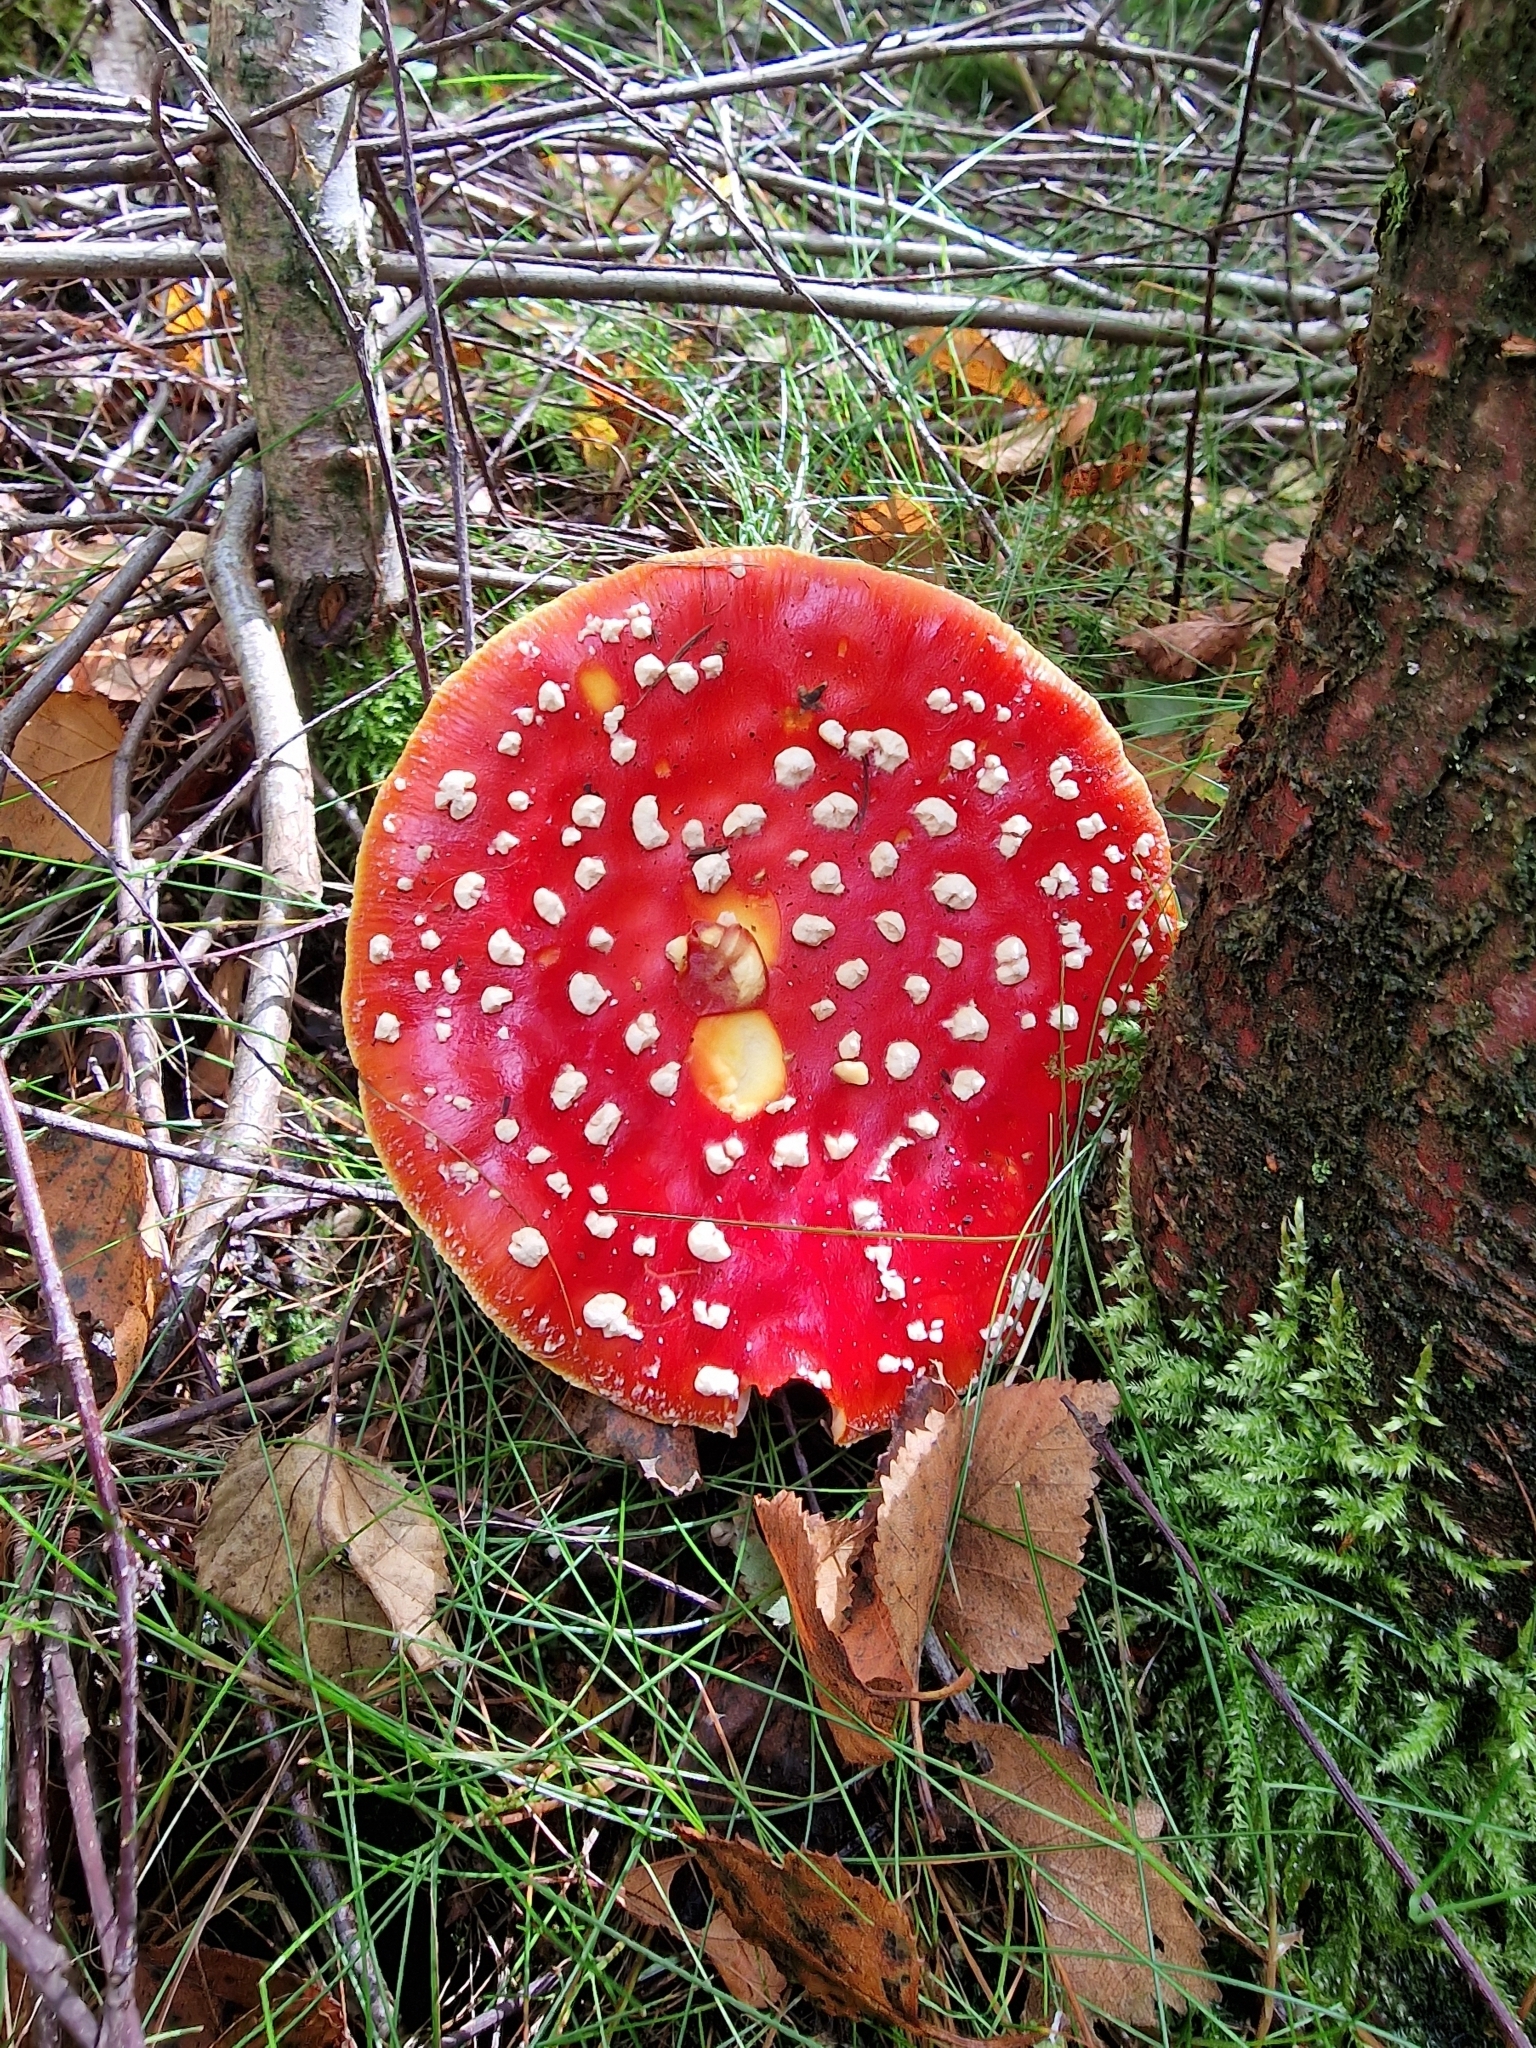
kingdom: Fungi
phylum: Basidiomycota
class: Agaricomycetes
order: Agaricales
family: Amanitaceae
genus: Amanita
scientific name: Amanita muscaria
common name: Fly agaric
